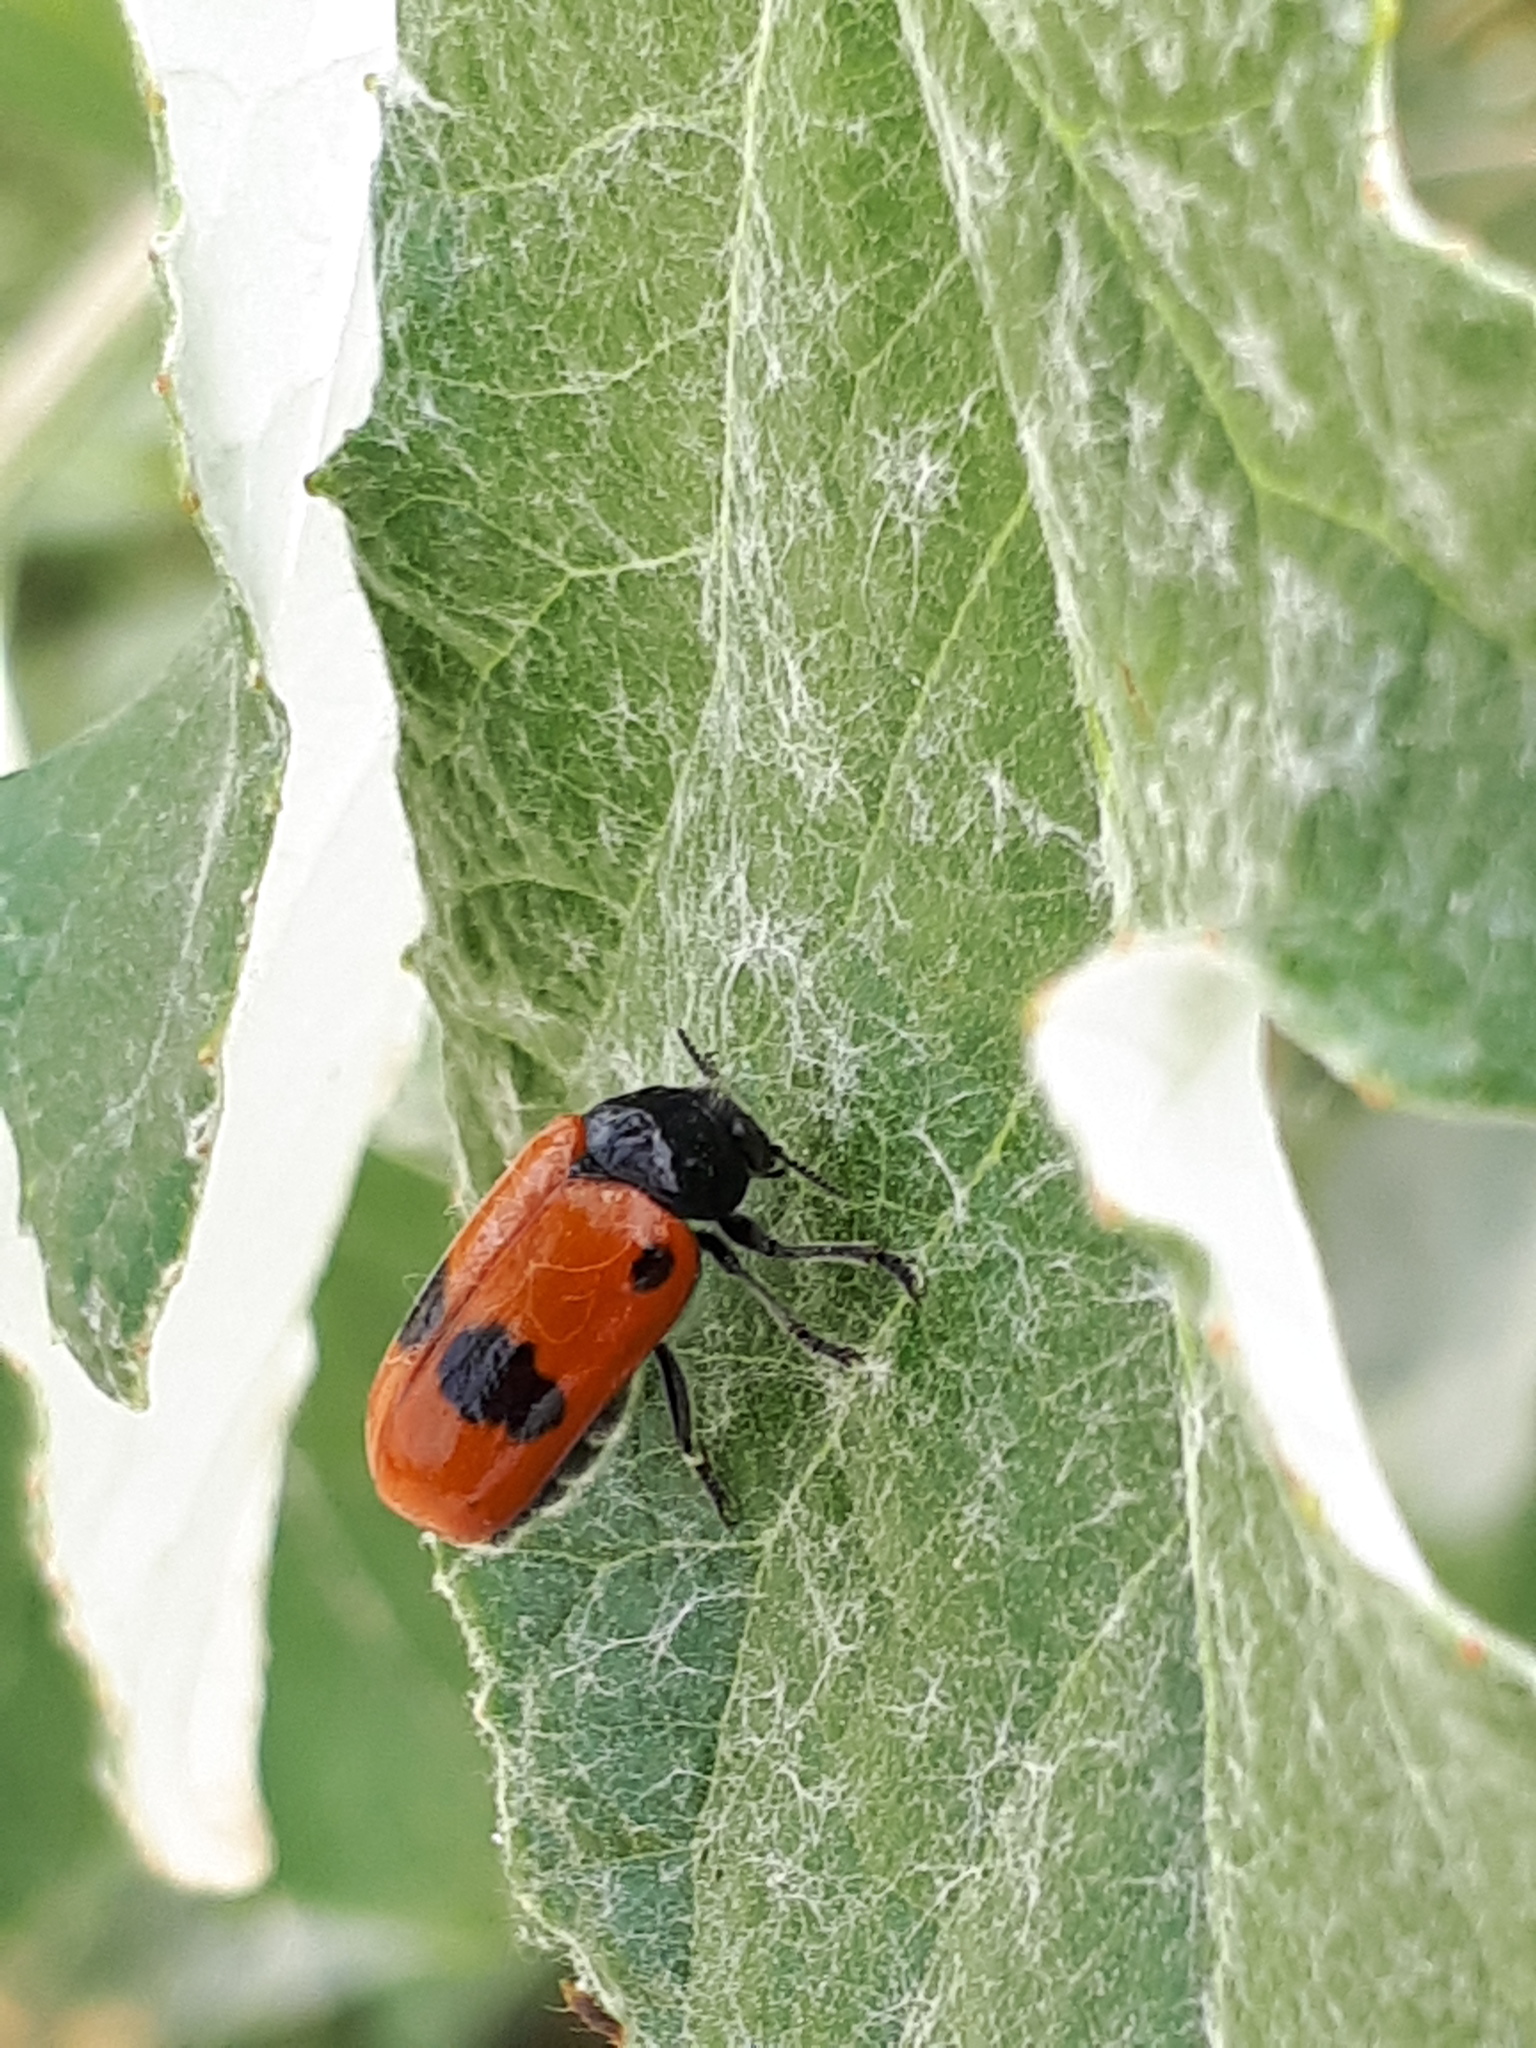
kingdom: Animalia
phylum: Arthropoda
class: Insecta
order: Coleoptera
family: Chrysomelidae
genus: Clytra
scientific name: Clytra laeviuscula
